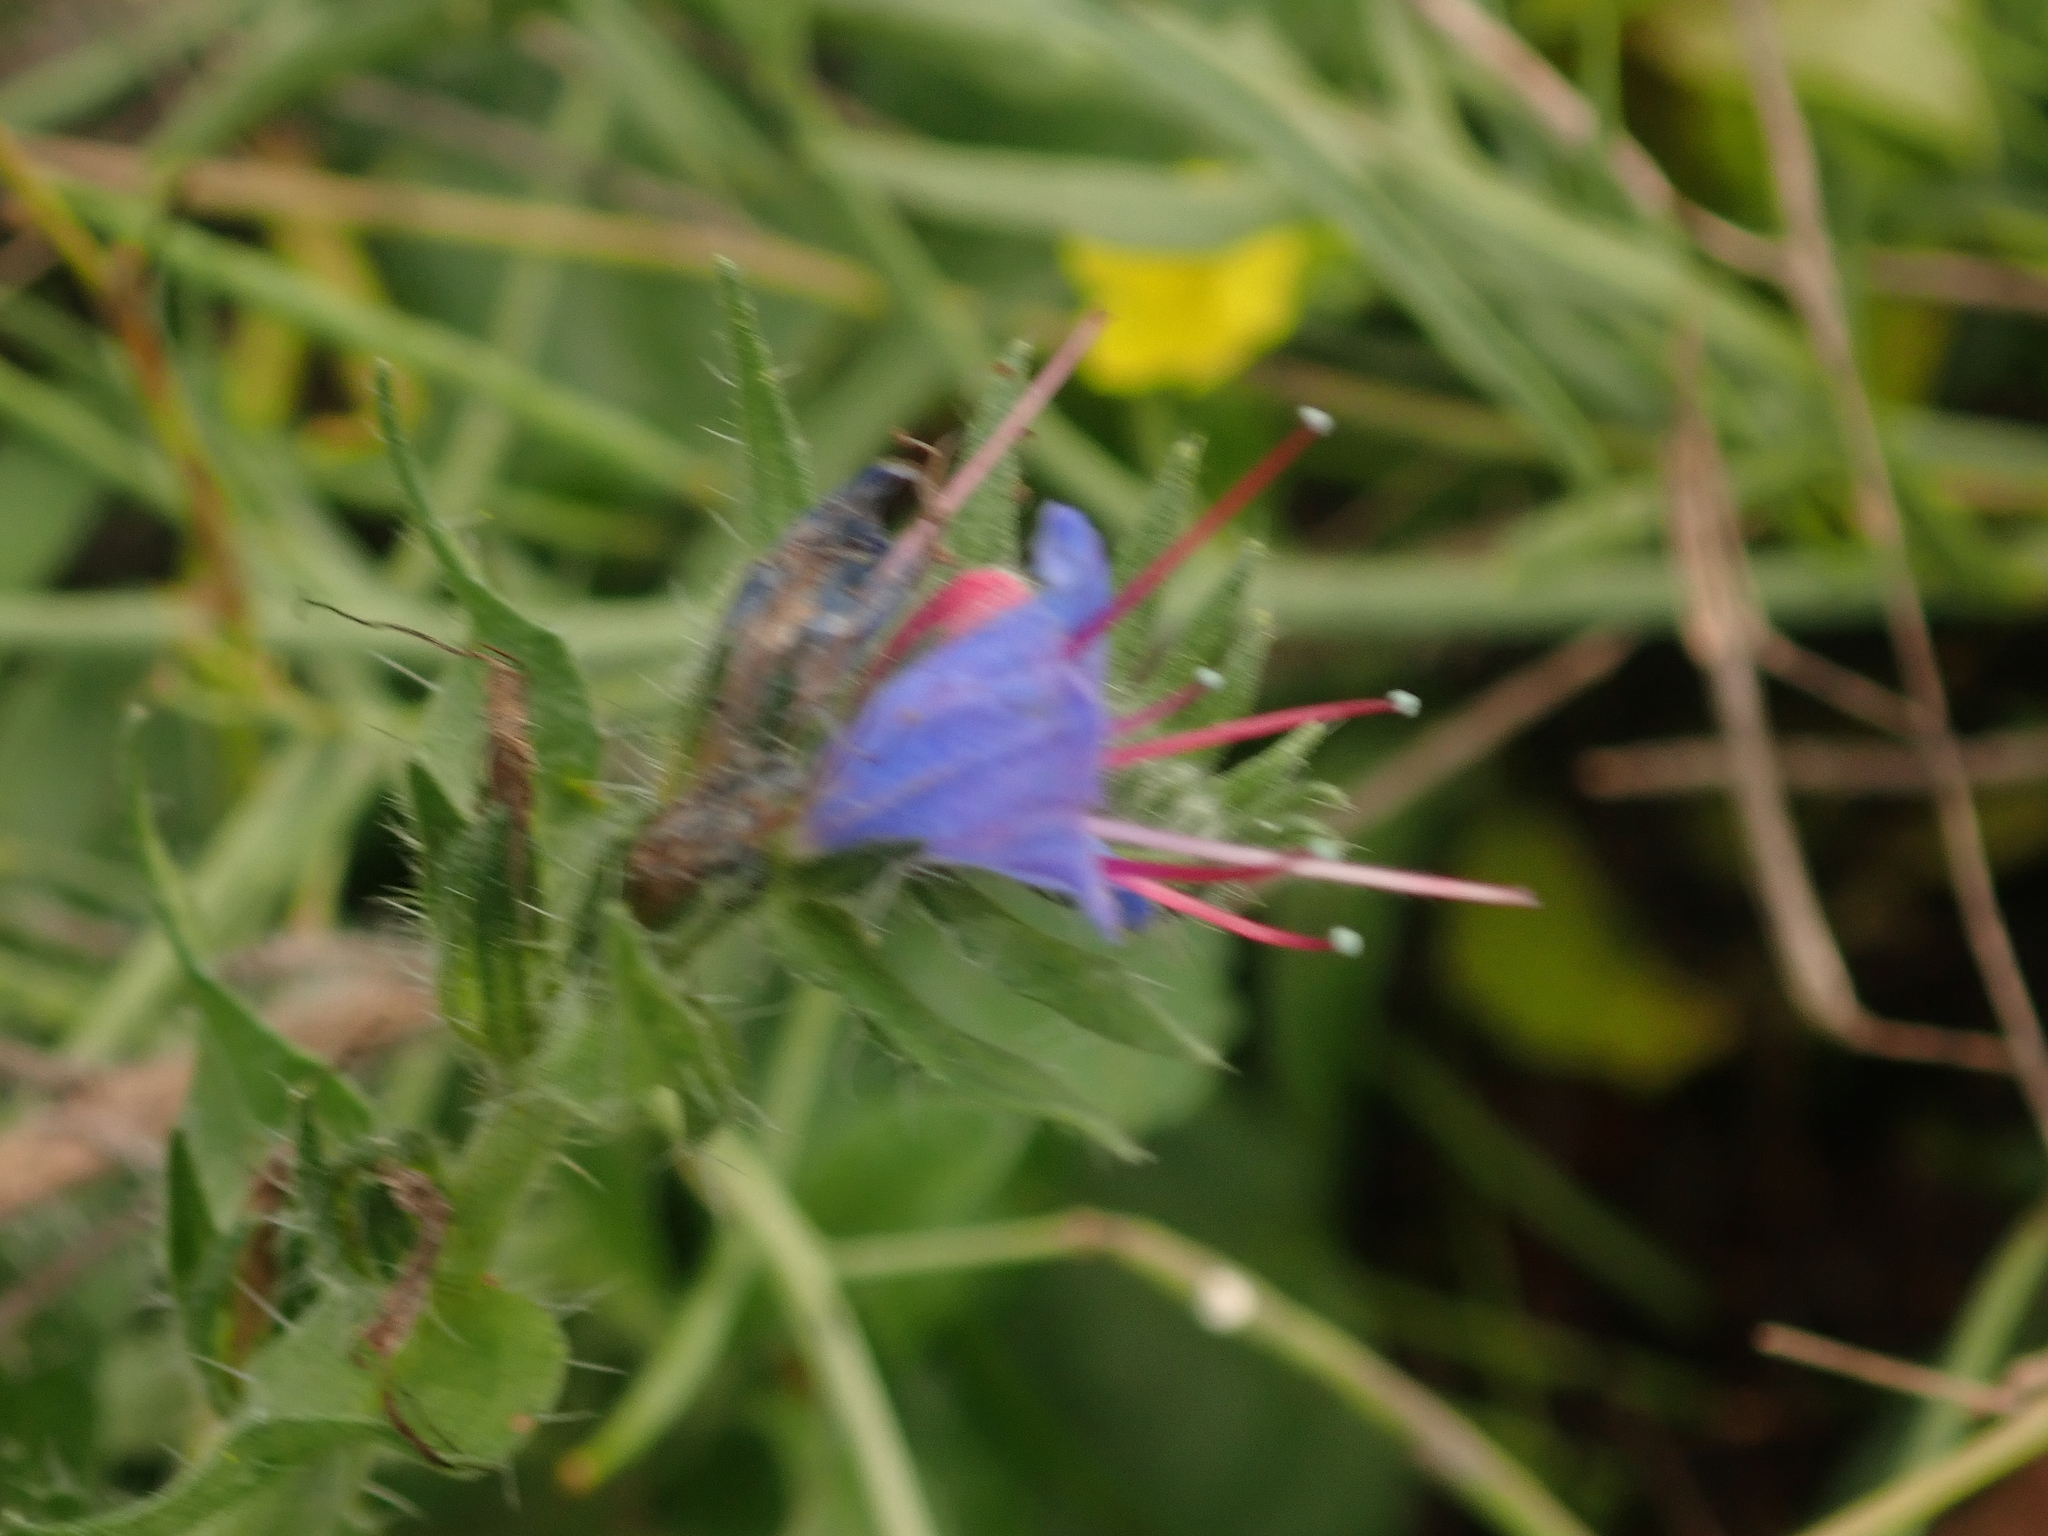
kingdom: Plantae
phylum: Tracheophyta
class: Magnoliopsida
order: Boraginales
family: Boraginaceae
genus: Echium
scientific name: Echium vulgare
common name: Common viper's bugloss
